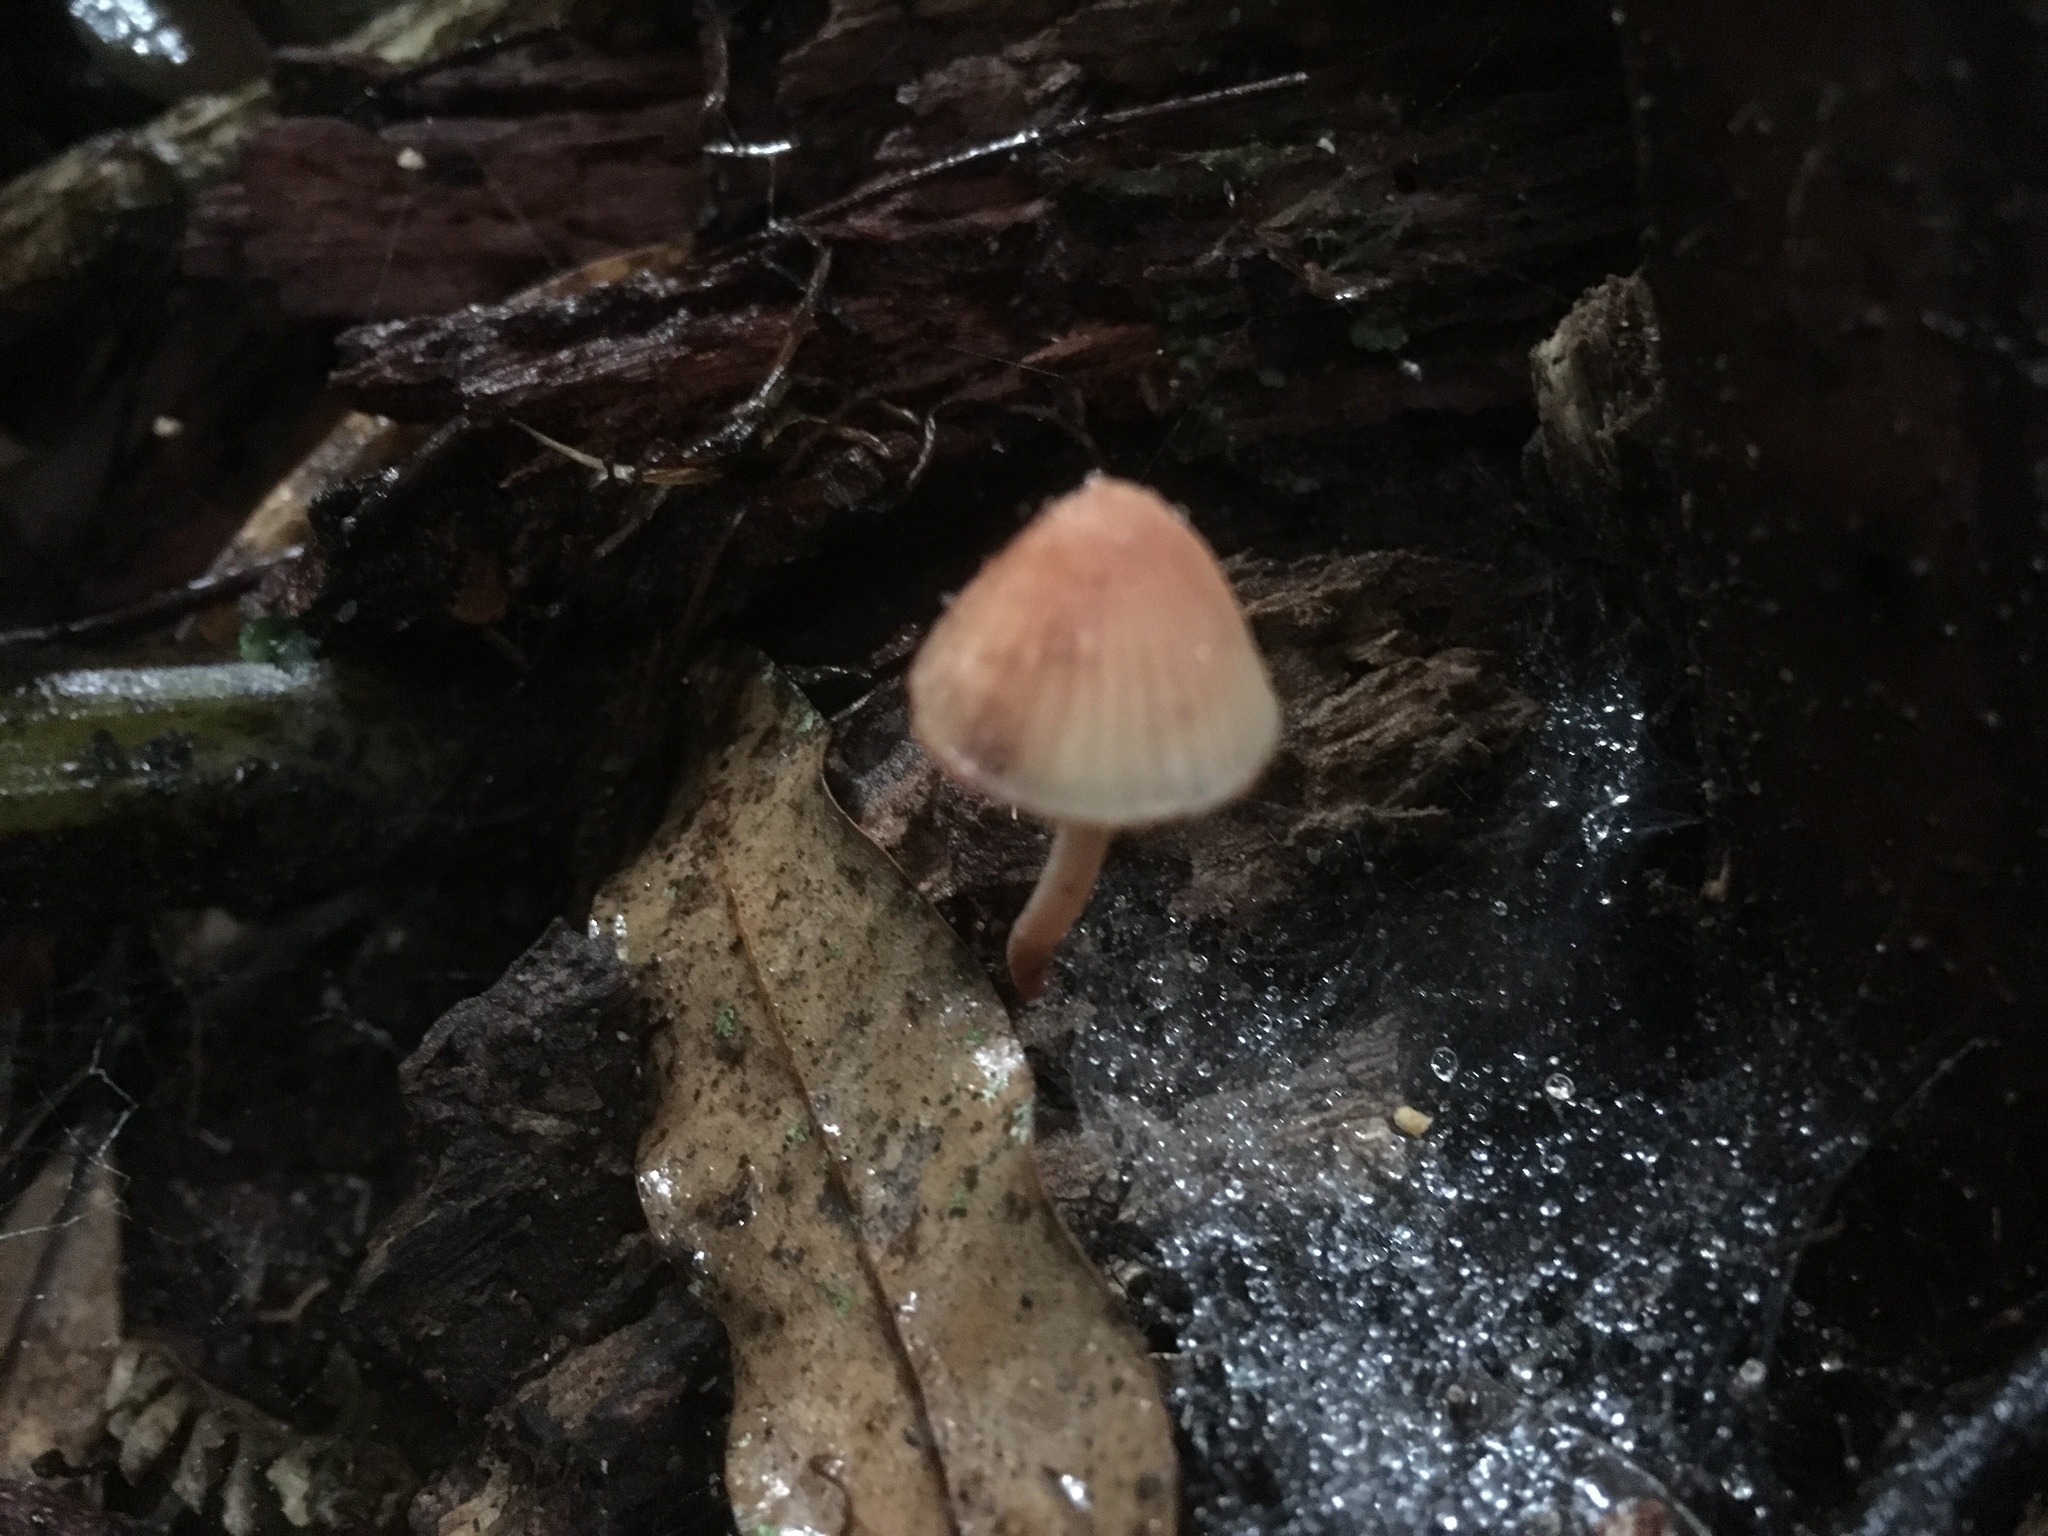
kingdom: Fungi
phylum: Basidiomycota
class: Agaricomycetes
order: Agaricales
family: Mycenaceae
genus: Mycena
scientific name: Mycena mariae
